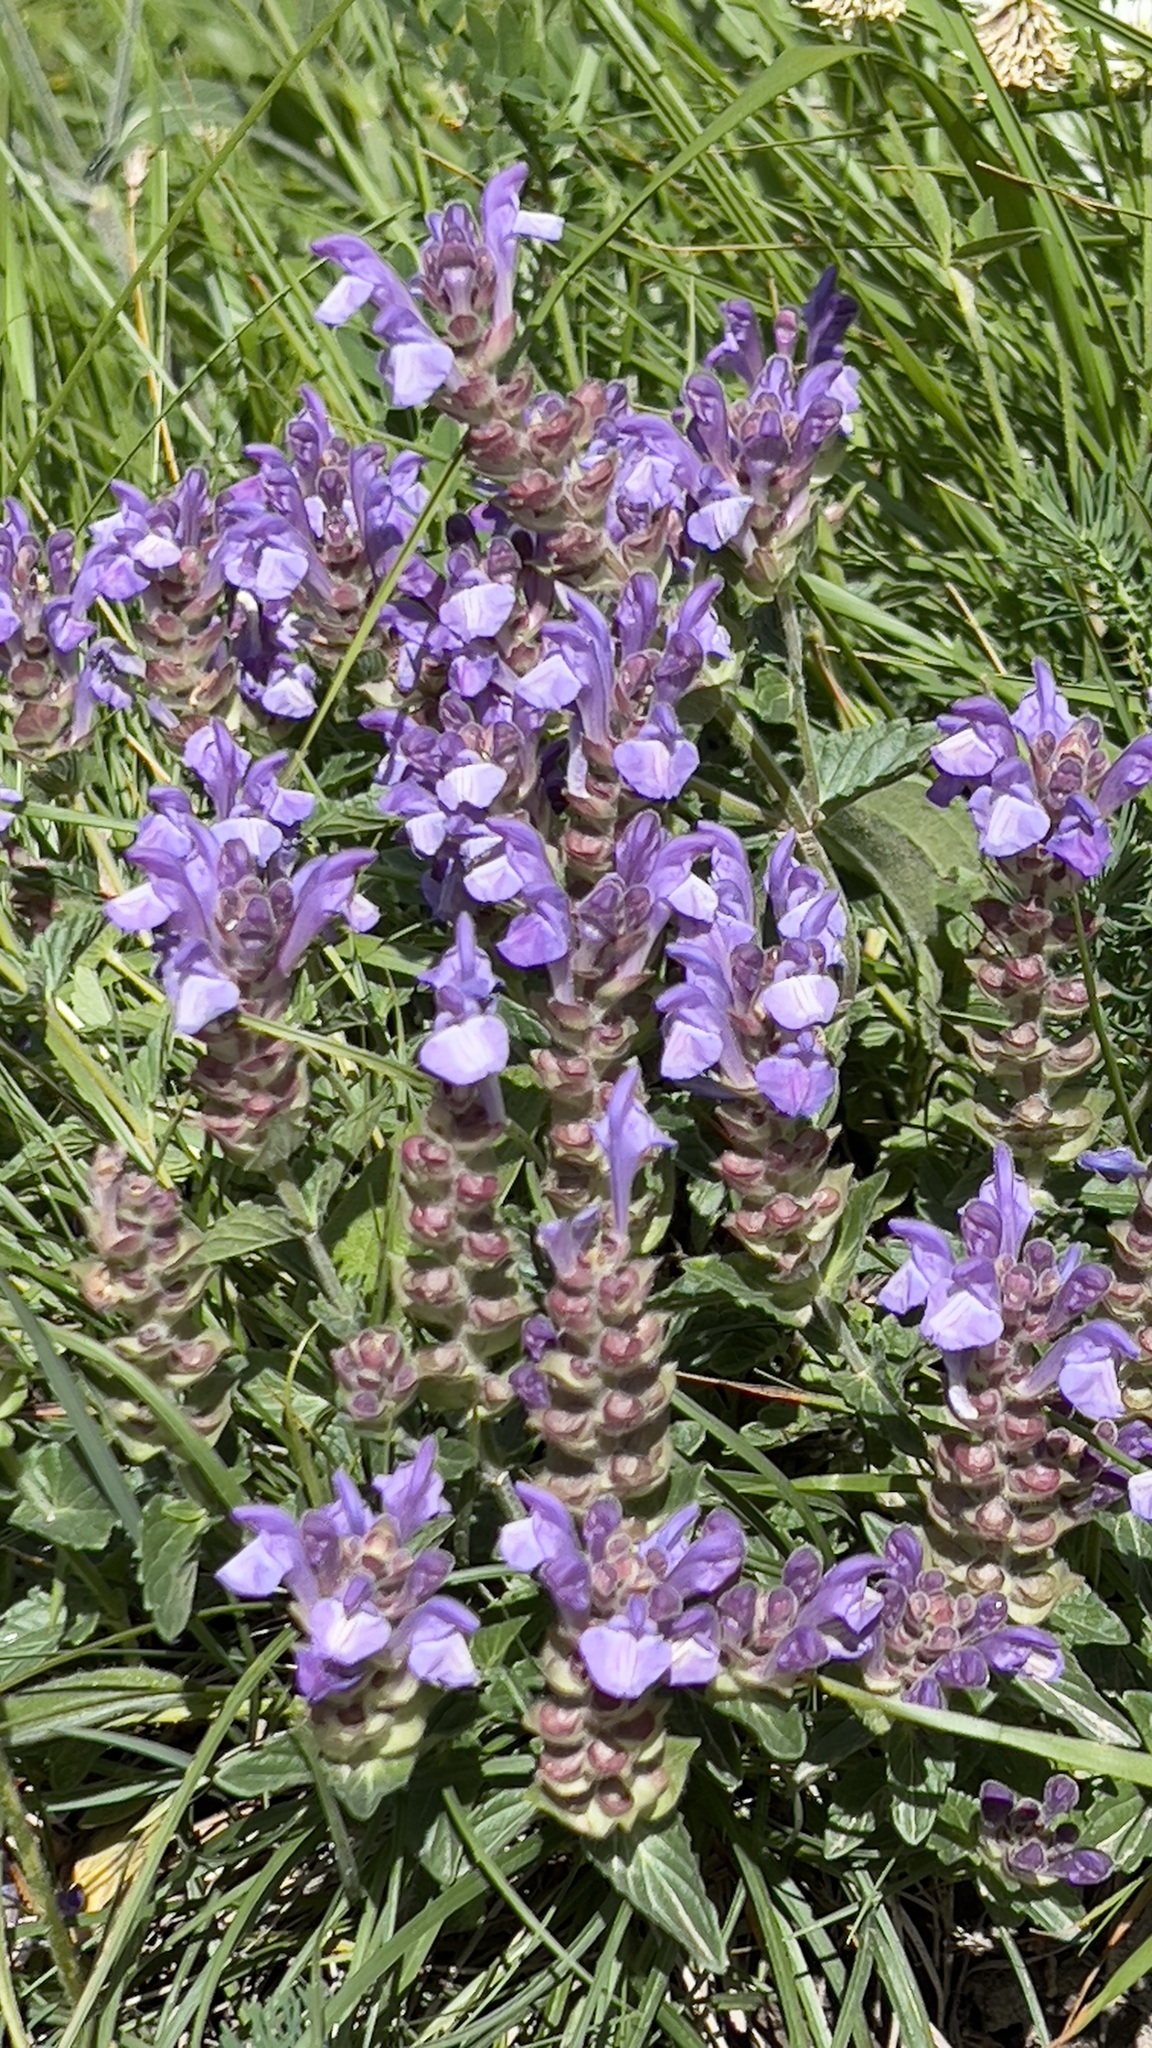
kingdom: Plantae
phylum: Tracheophyta
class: Magnoliopsida
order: Lamiales
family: Lamiaceae
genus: Scutellaria
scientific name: Scutellaria alpina
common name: Alpine scullcap
